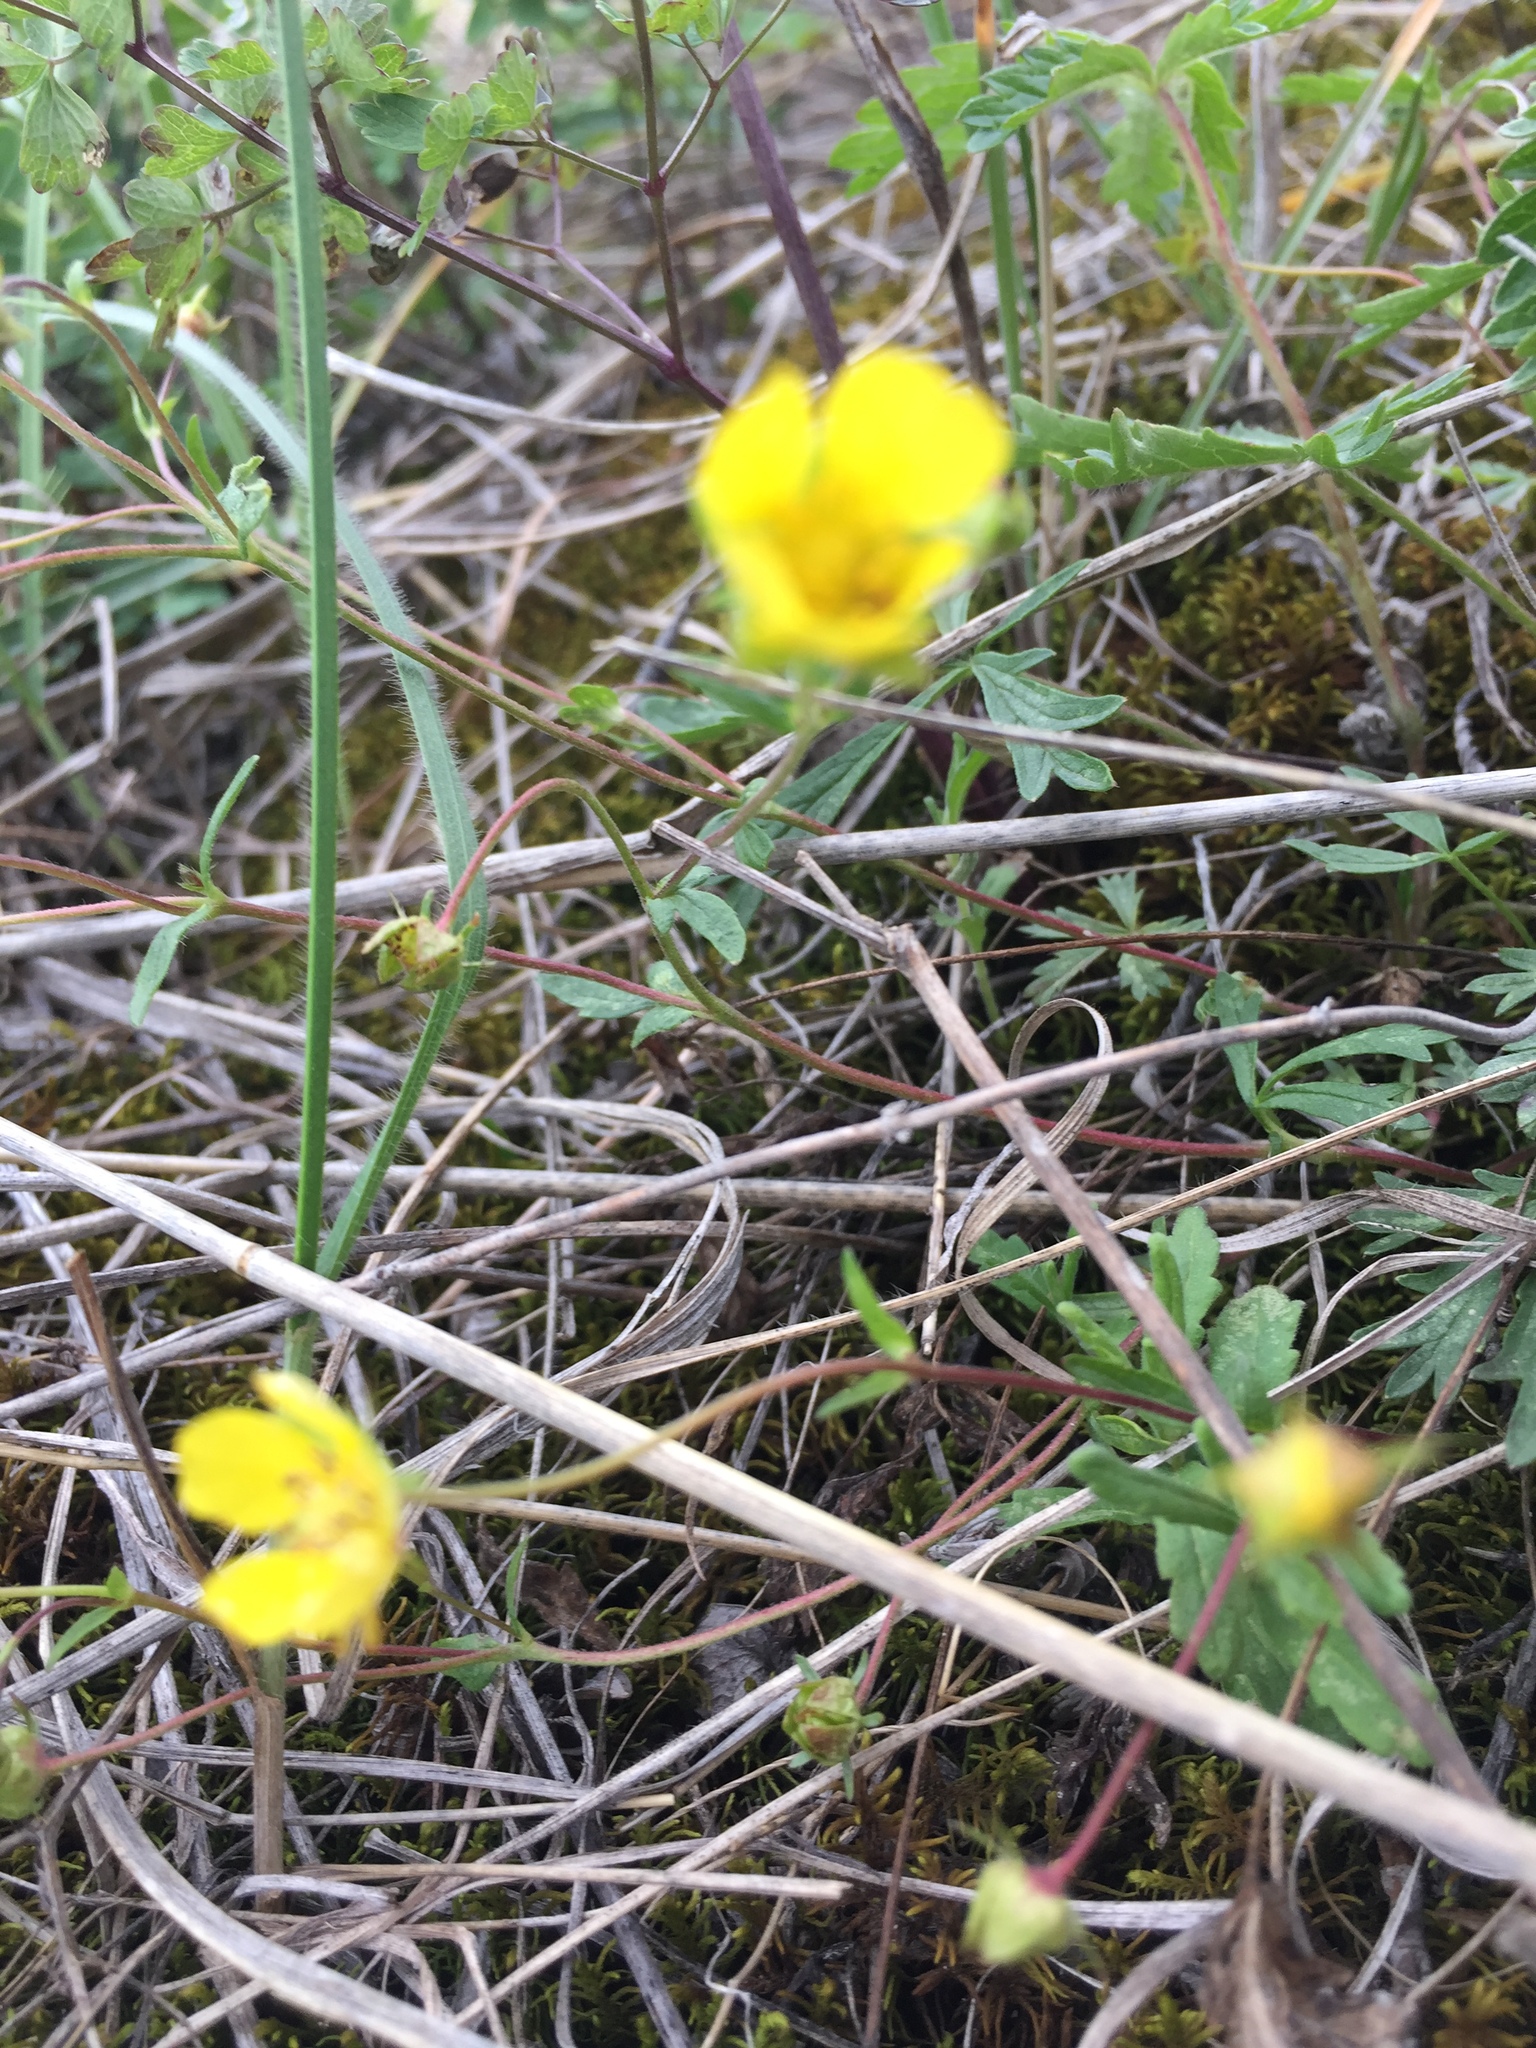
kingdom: Plantae
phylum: Tracheophyta
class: Magnoliopsida
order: Rosales
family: Rosaceae
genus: Potentilla
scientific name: Potentilla humifusa
